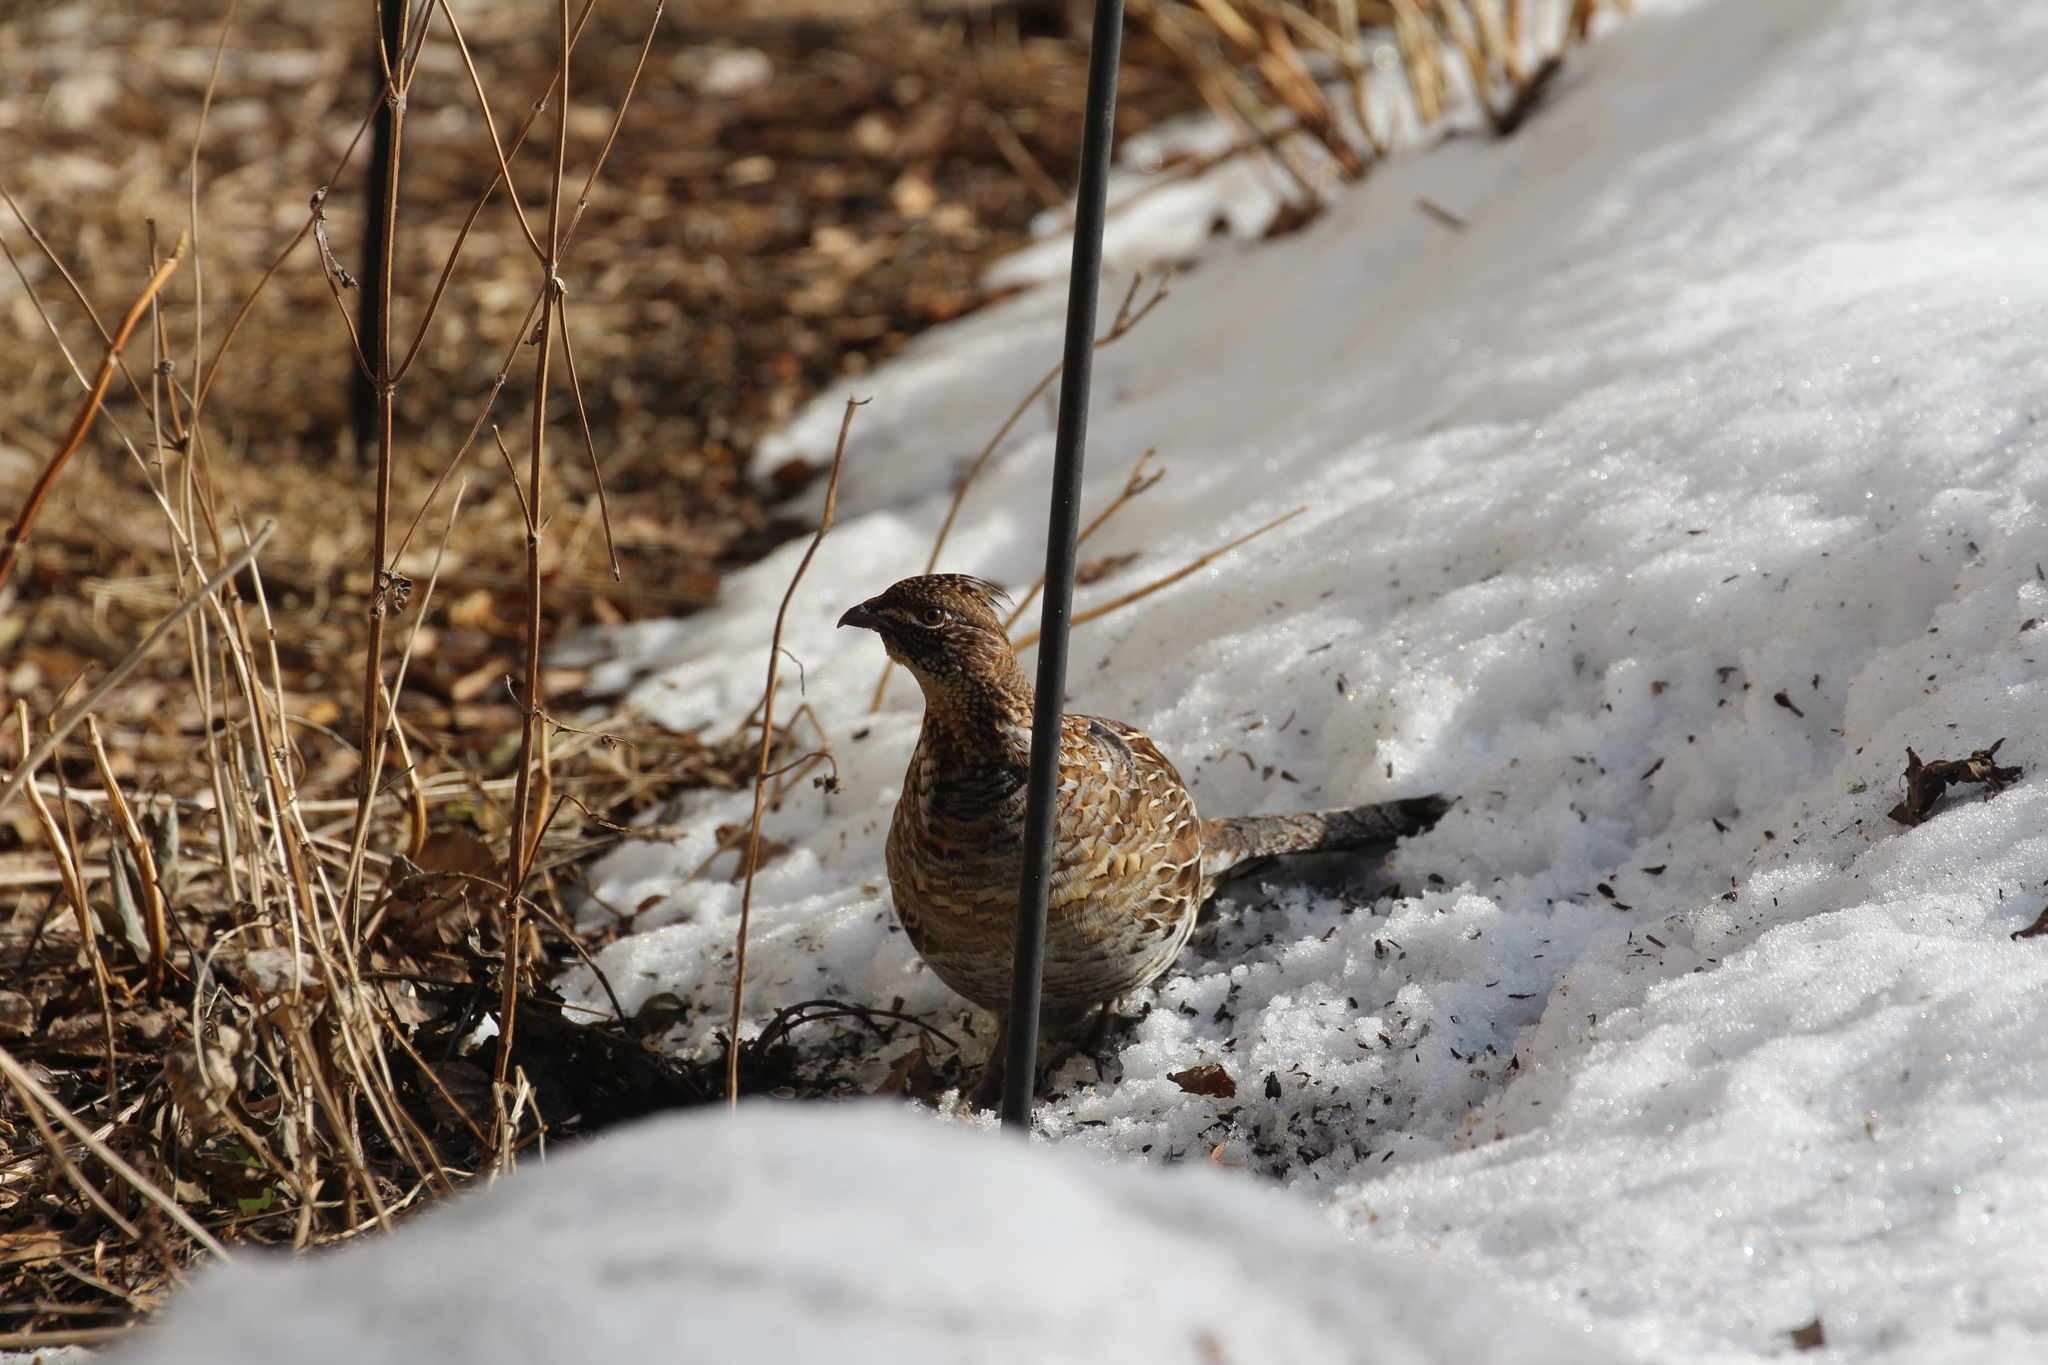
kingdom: Animalia
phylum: Chordata
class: Aves
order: Galliformes
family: Phasianidae
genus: Bonasa
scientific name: Bonasa umbellus
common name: Ruffed grouse
